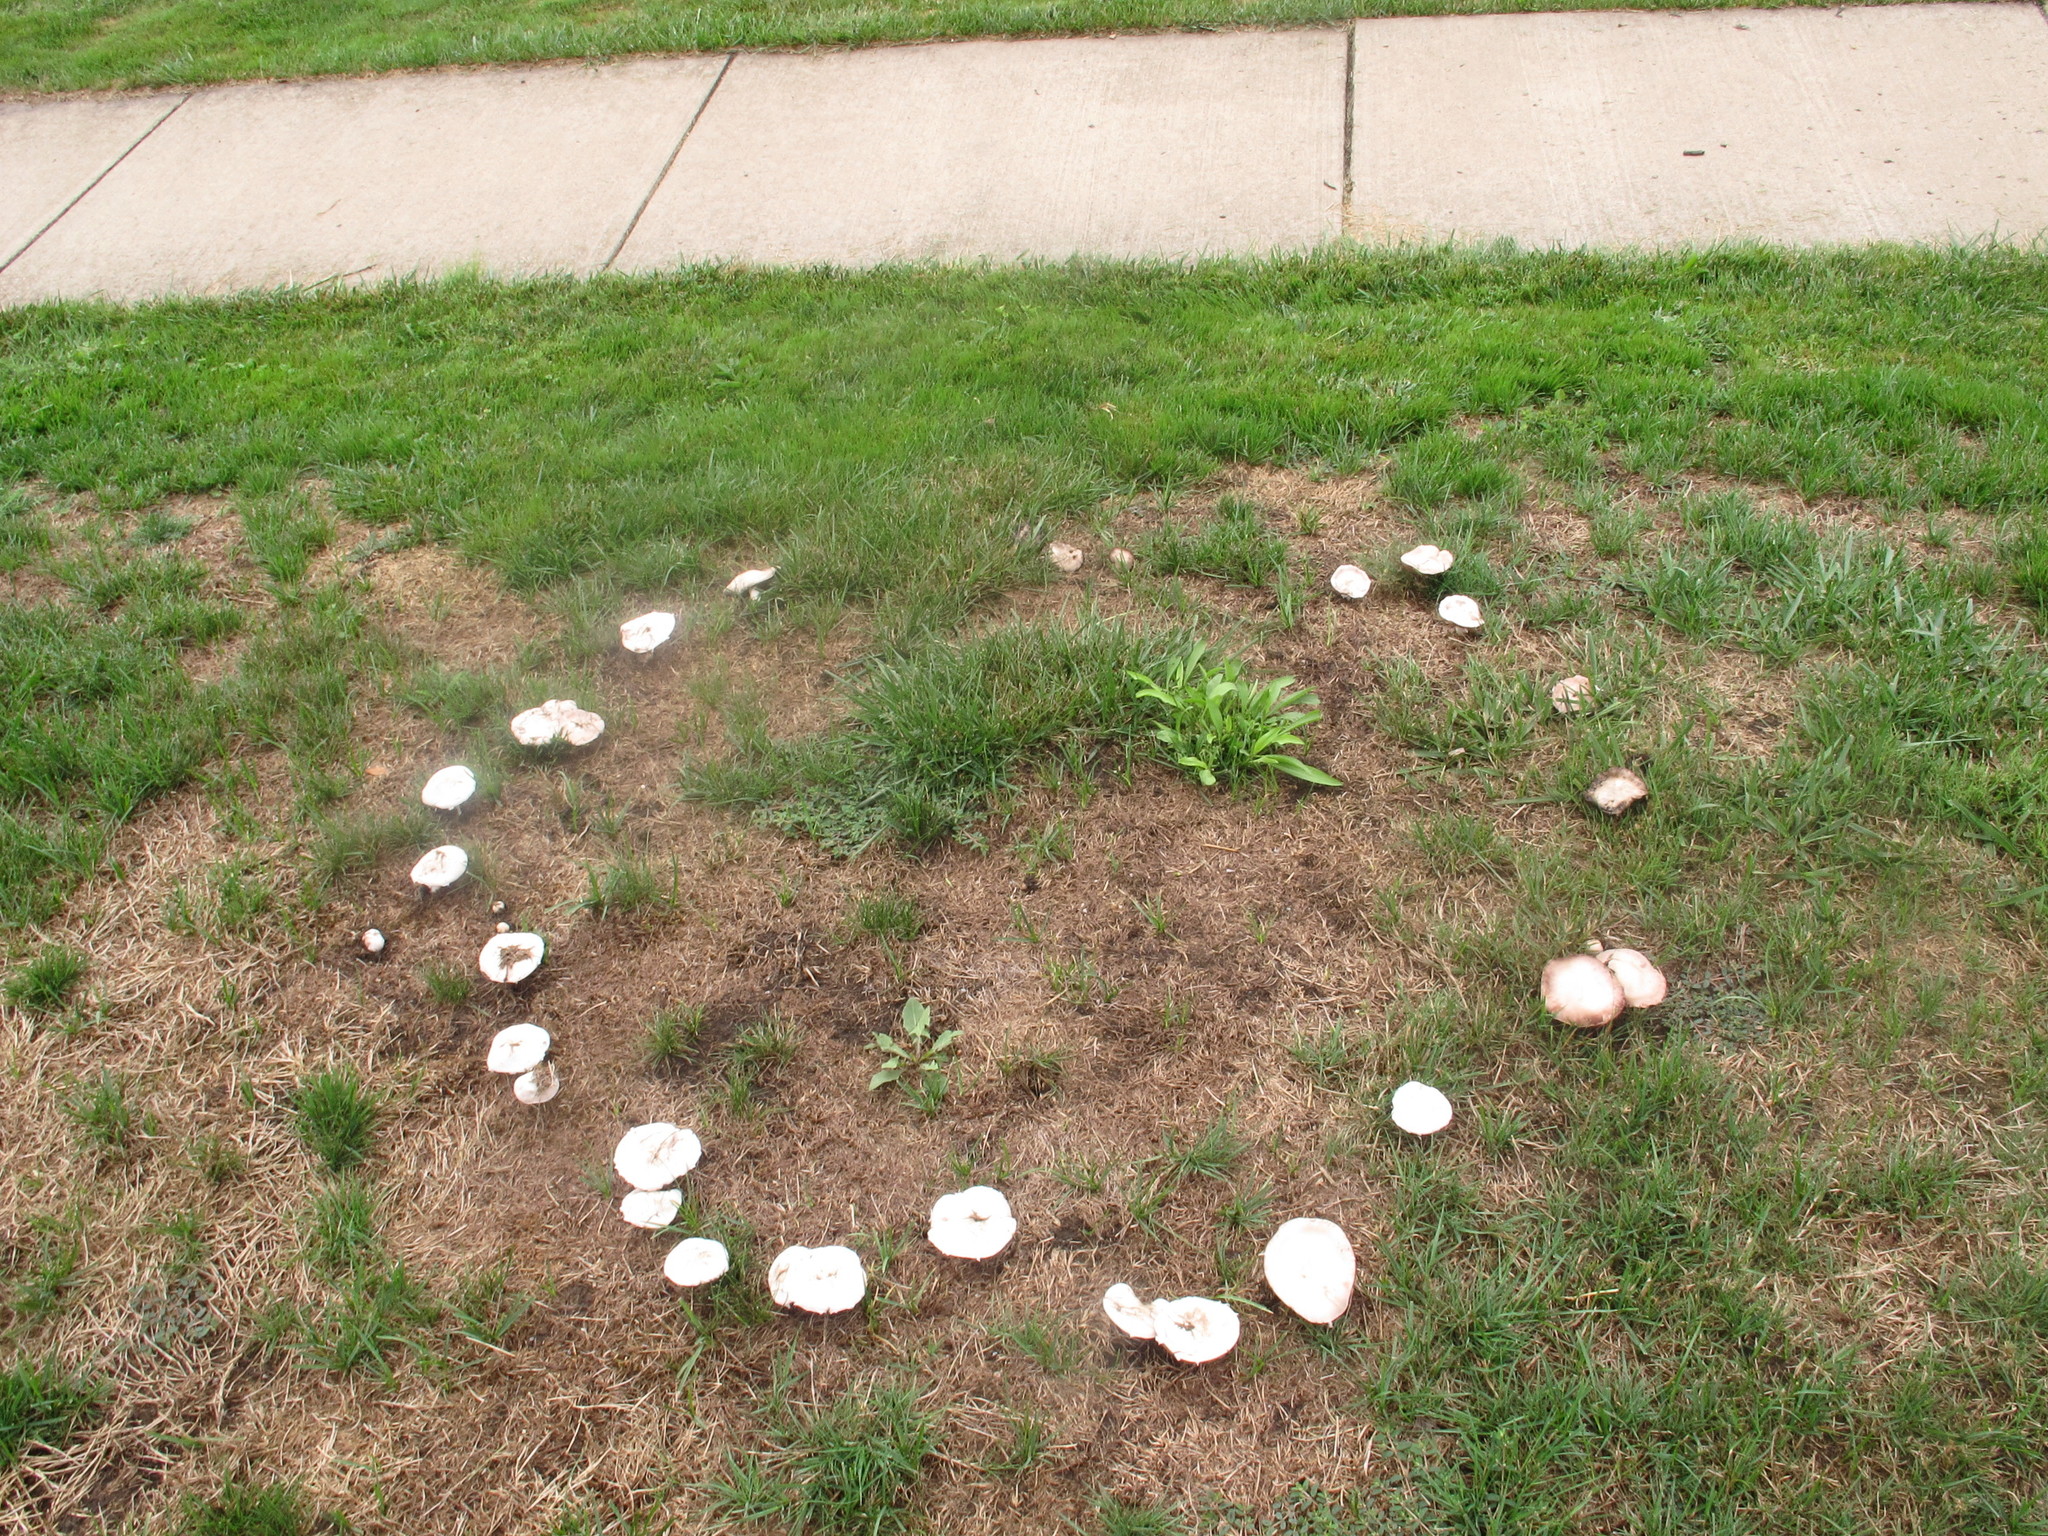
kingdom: Fungi
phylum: Basidiomycota
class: Agaricomycetes
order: Agaricales
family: Agaricaceae
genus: Agaricus
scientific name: Agaricus campestris
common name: Field mushroom
